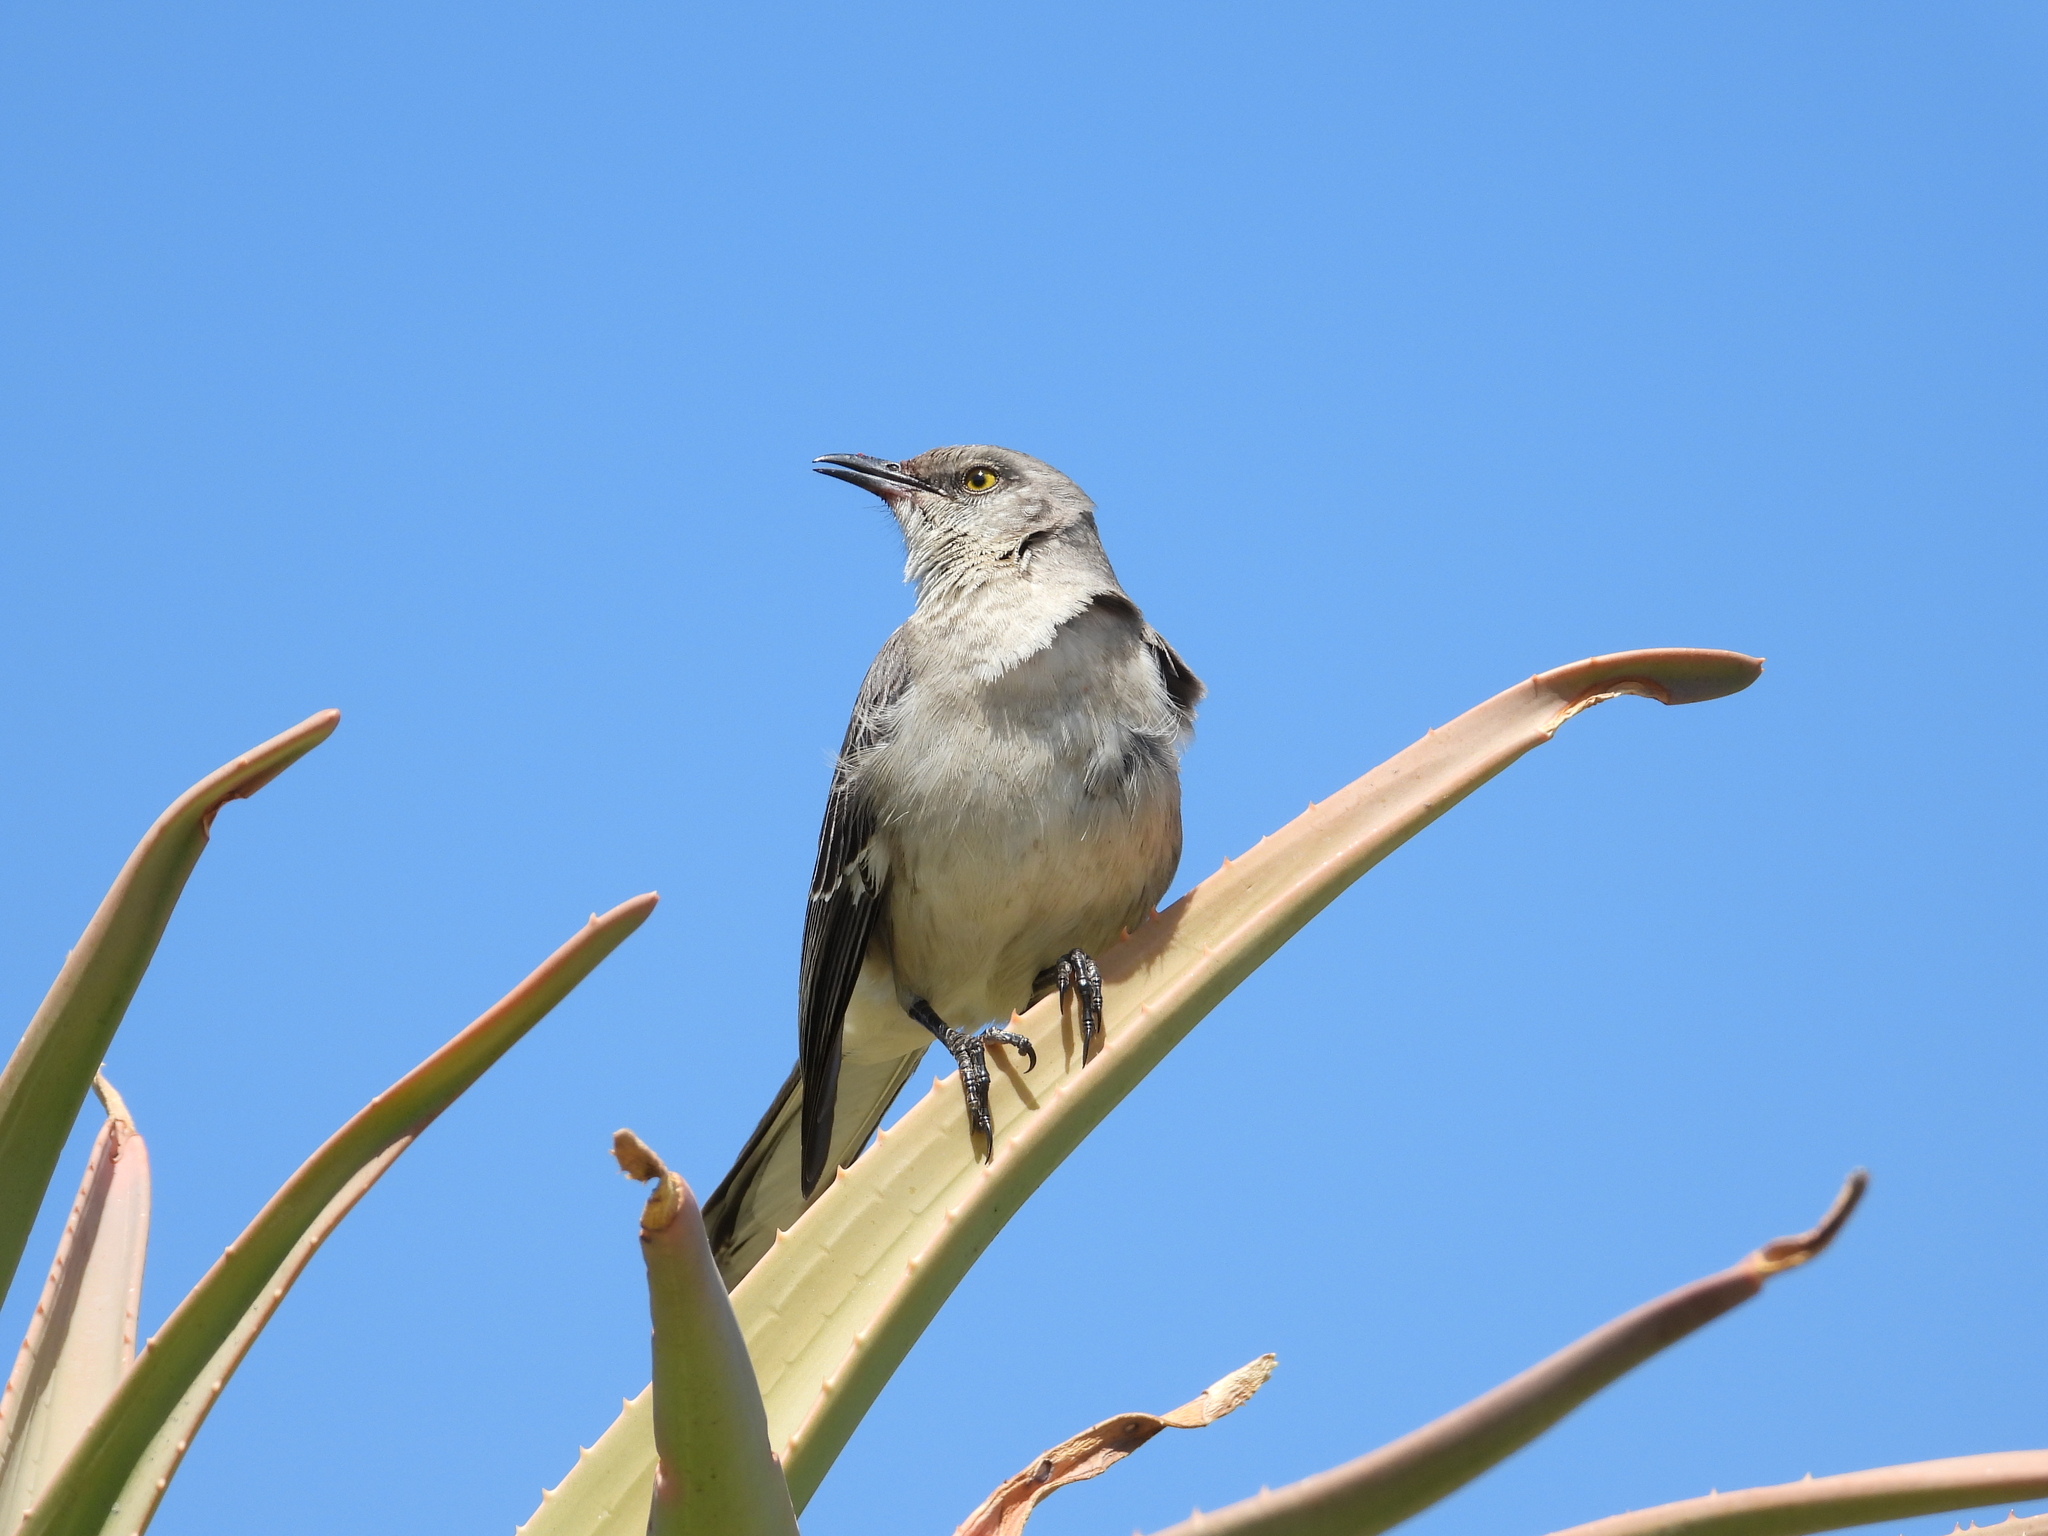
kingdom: Animalia
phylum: Chordata
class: Aves
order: Passeriformes
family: Mimidae
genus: Mimus
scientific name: Mimus polyglottos
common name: Northern mockingbird
